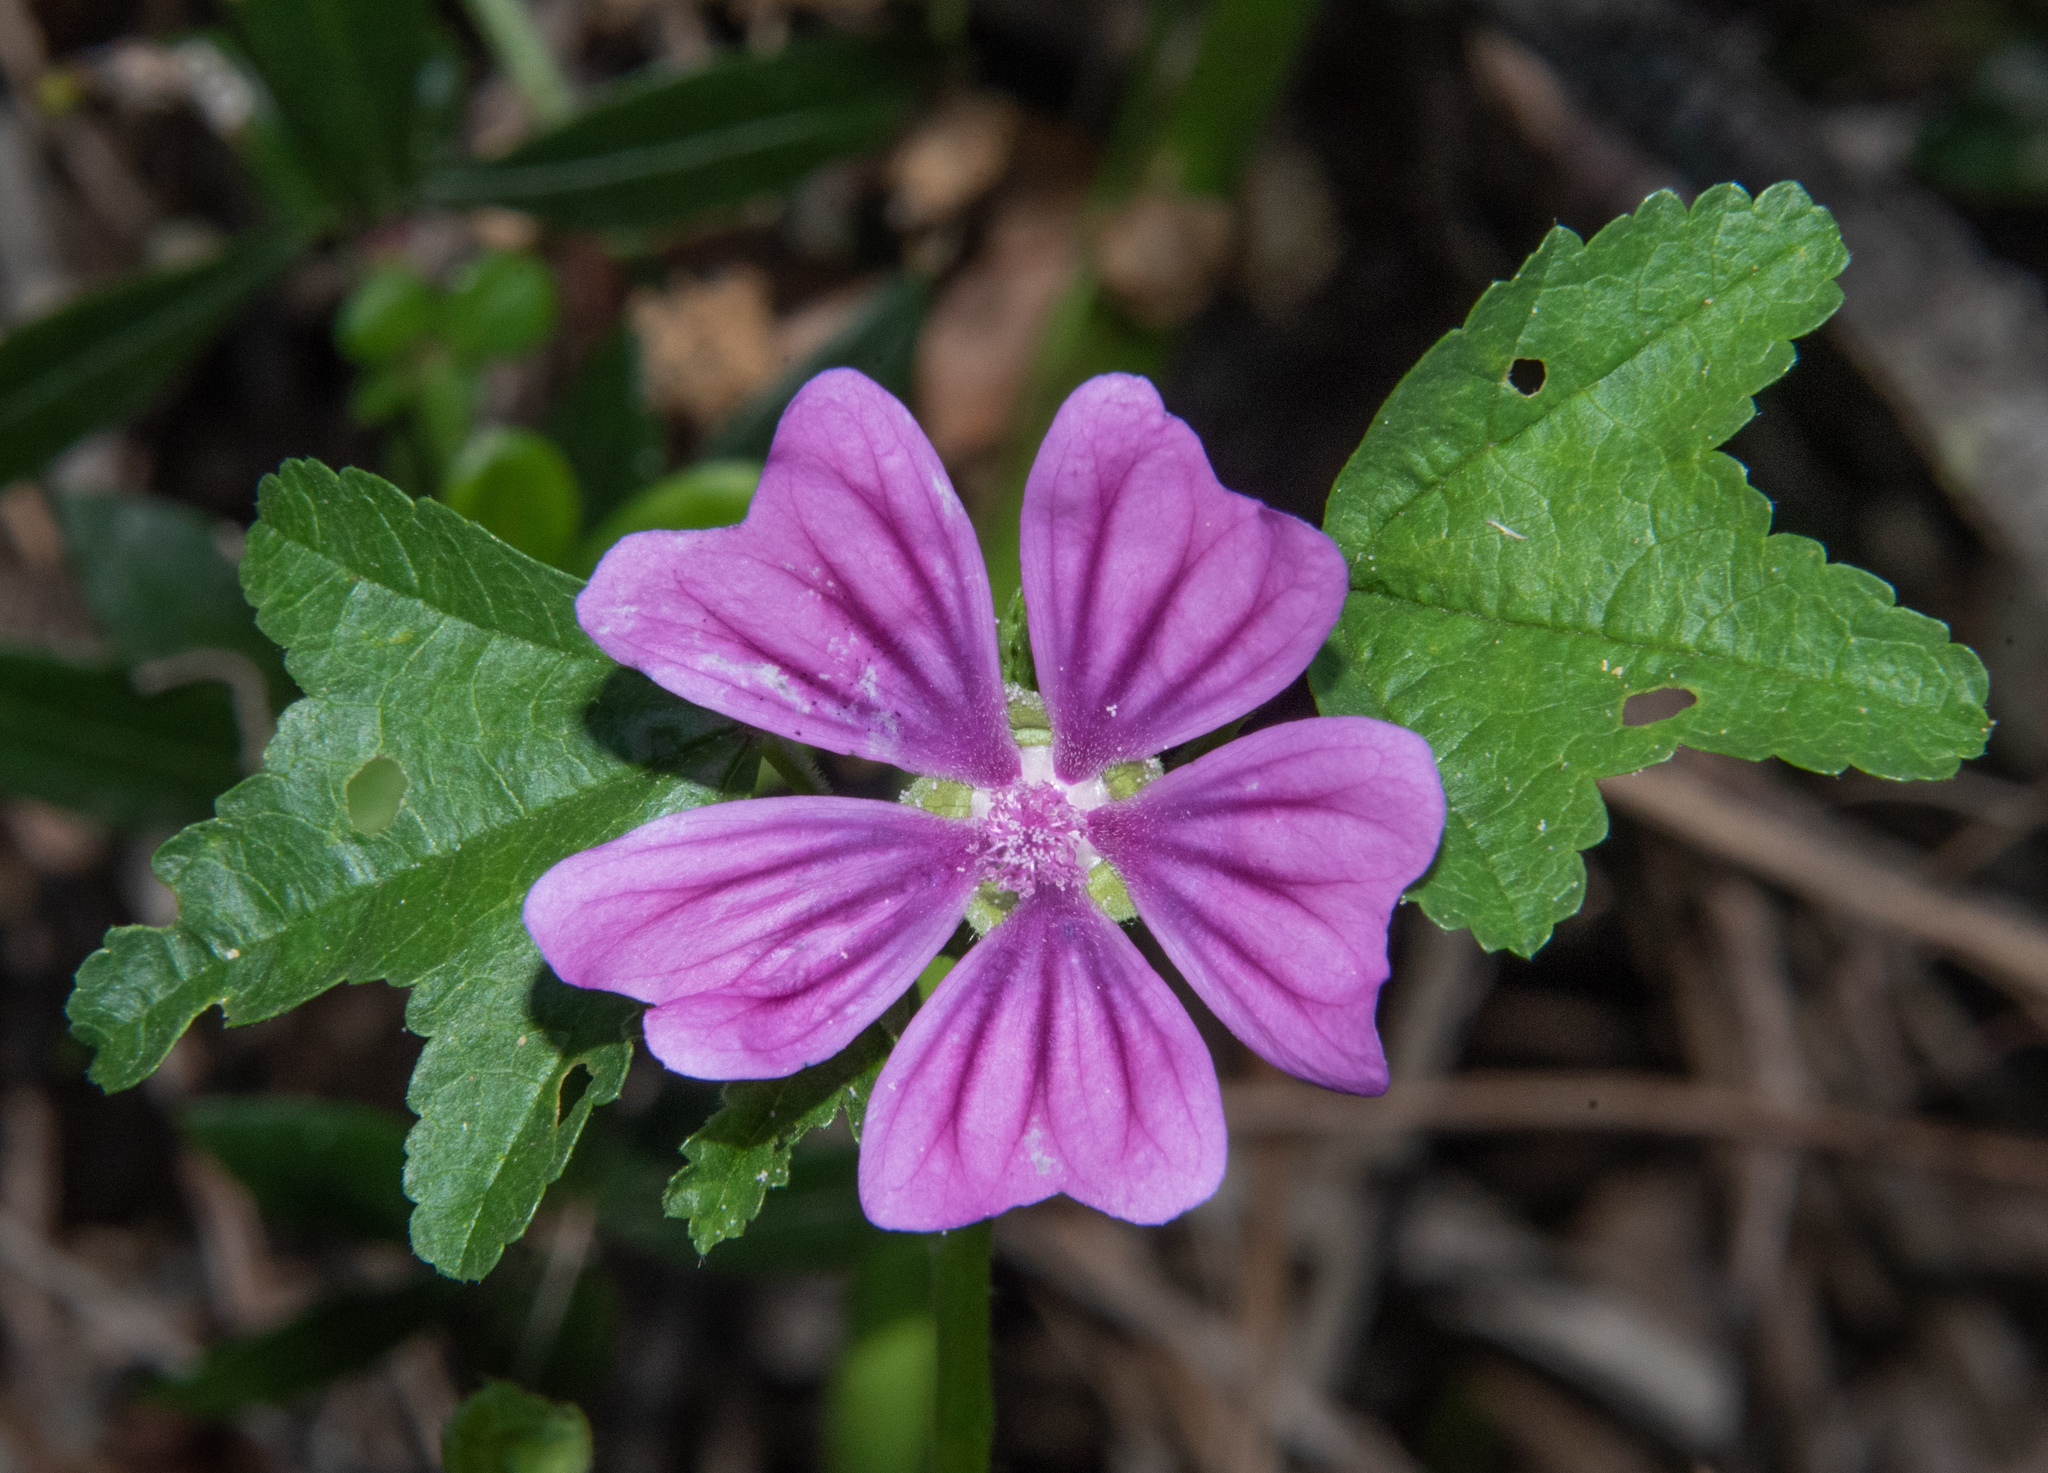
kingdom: Plantae
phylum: Tracheophyta
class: Magnoliopsida
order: Malvales
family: Malvaceae
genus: Malva
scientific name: Malva sylvestris
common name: Common mallow
